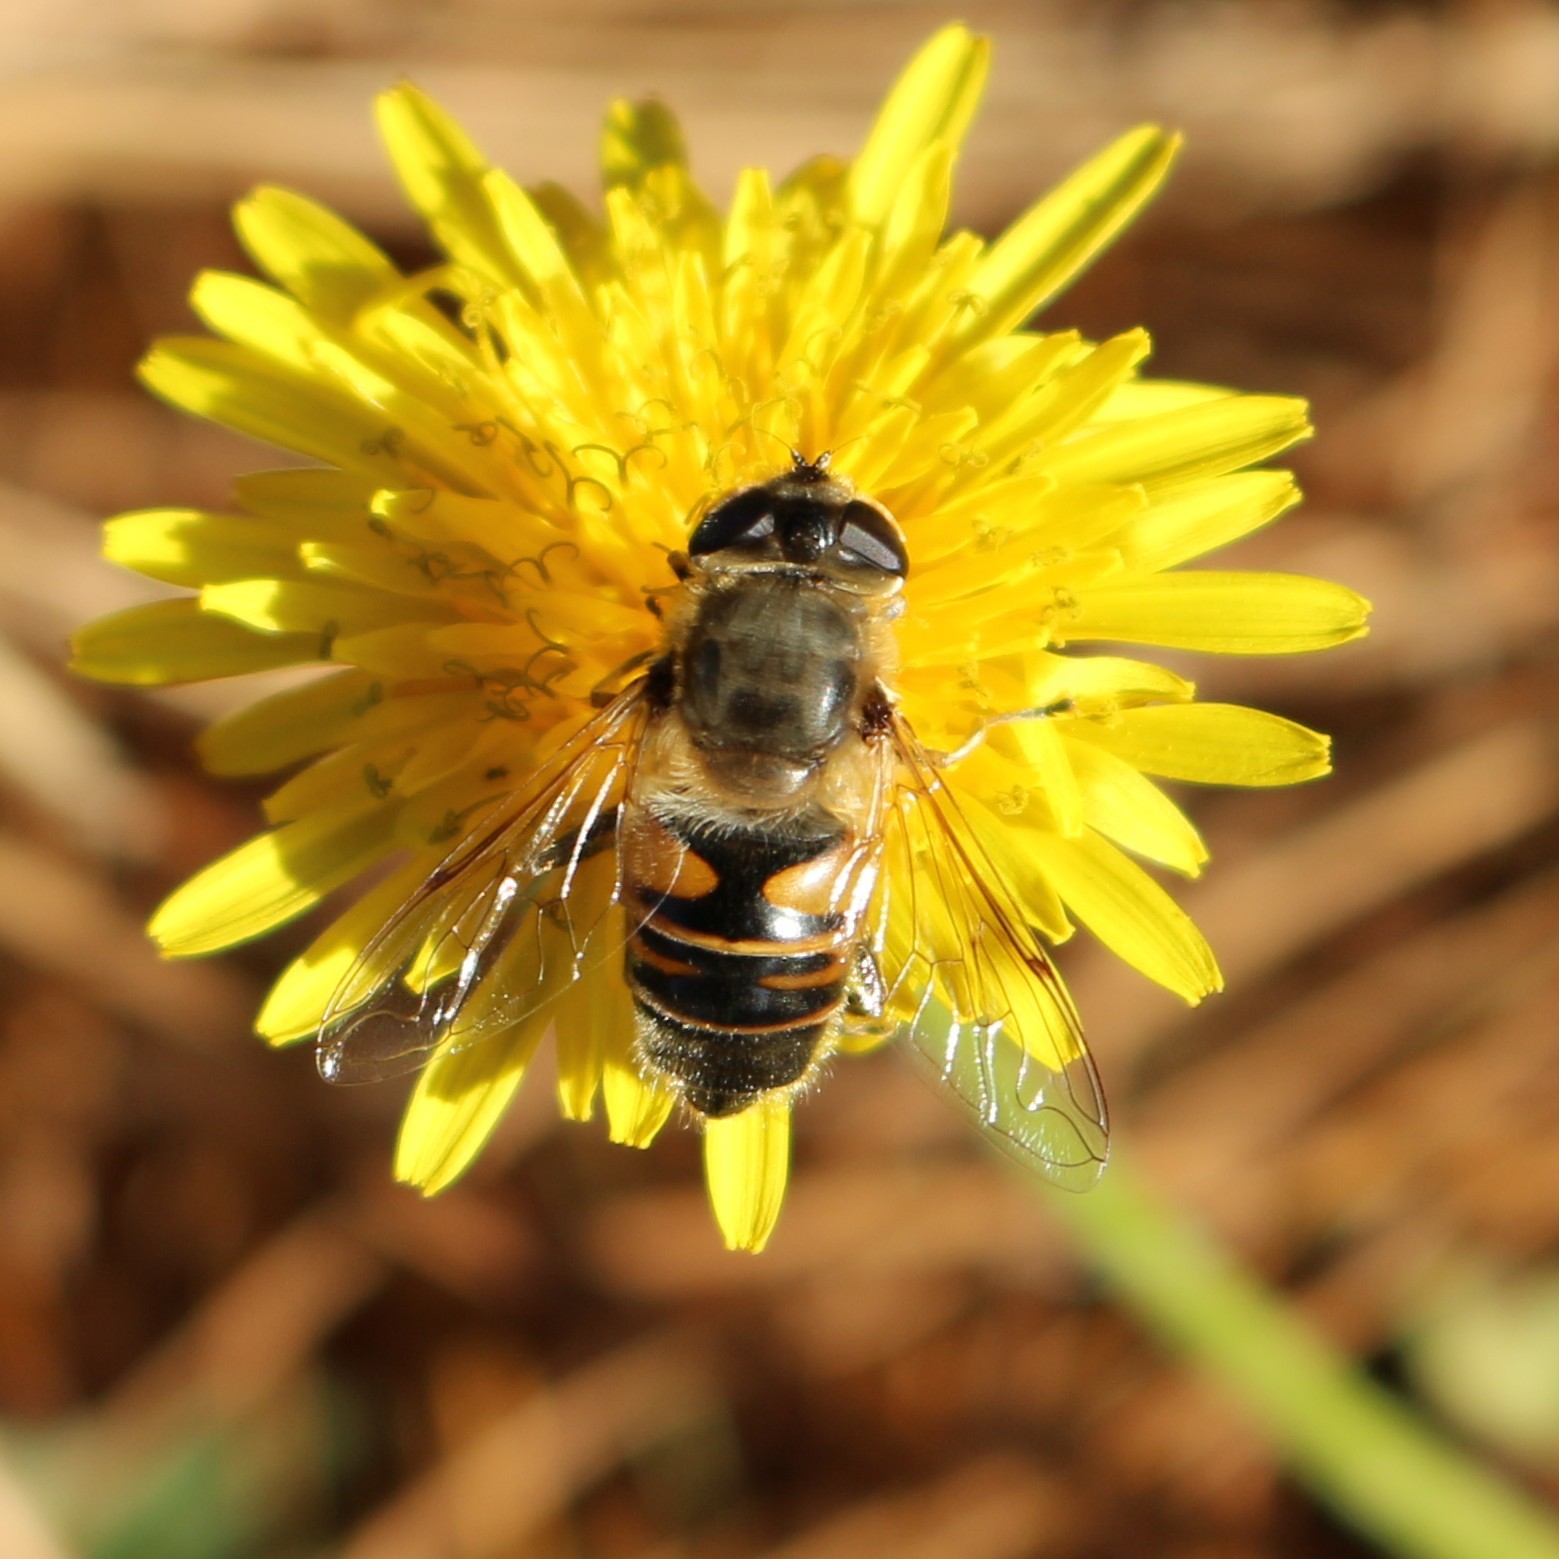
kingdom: Animalia
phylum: Arthropoda
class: Insecta
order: Diptera
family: Syrphidae
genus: Eristalis
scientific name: Eristalis tenax
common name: Drone fly
